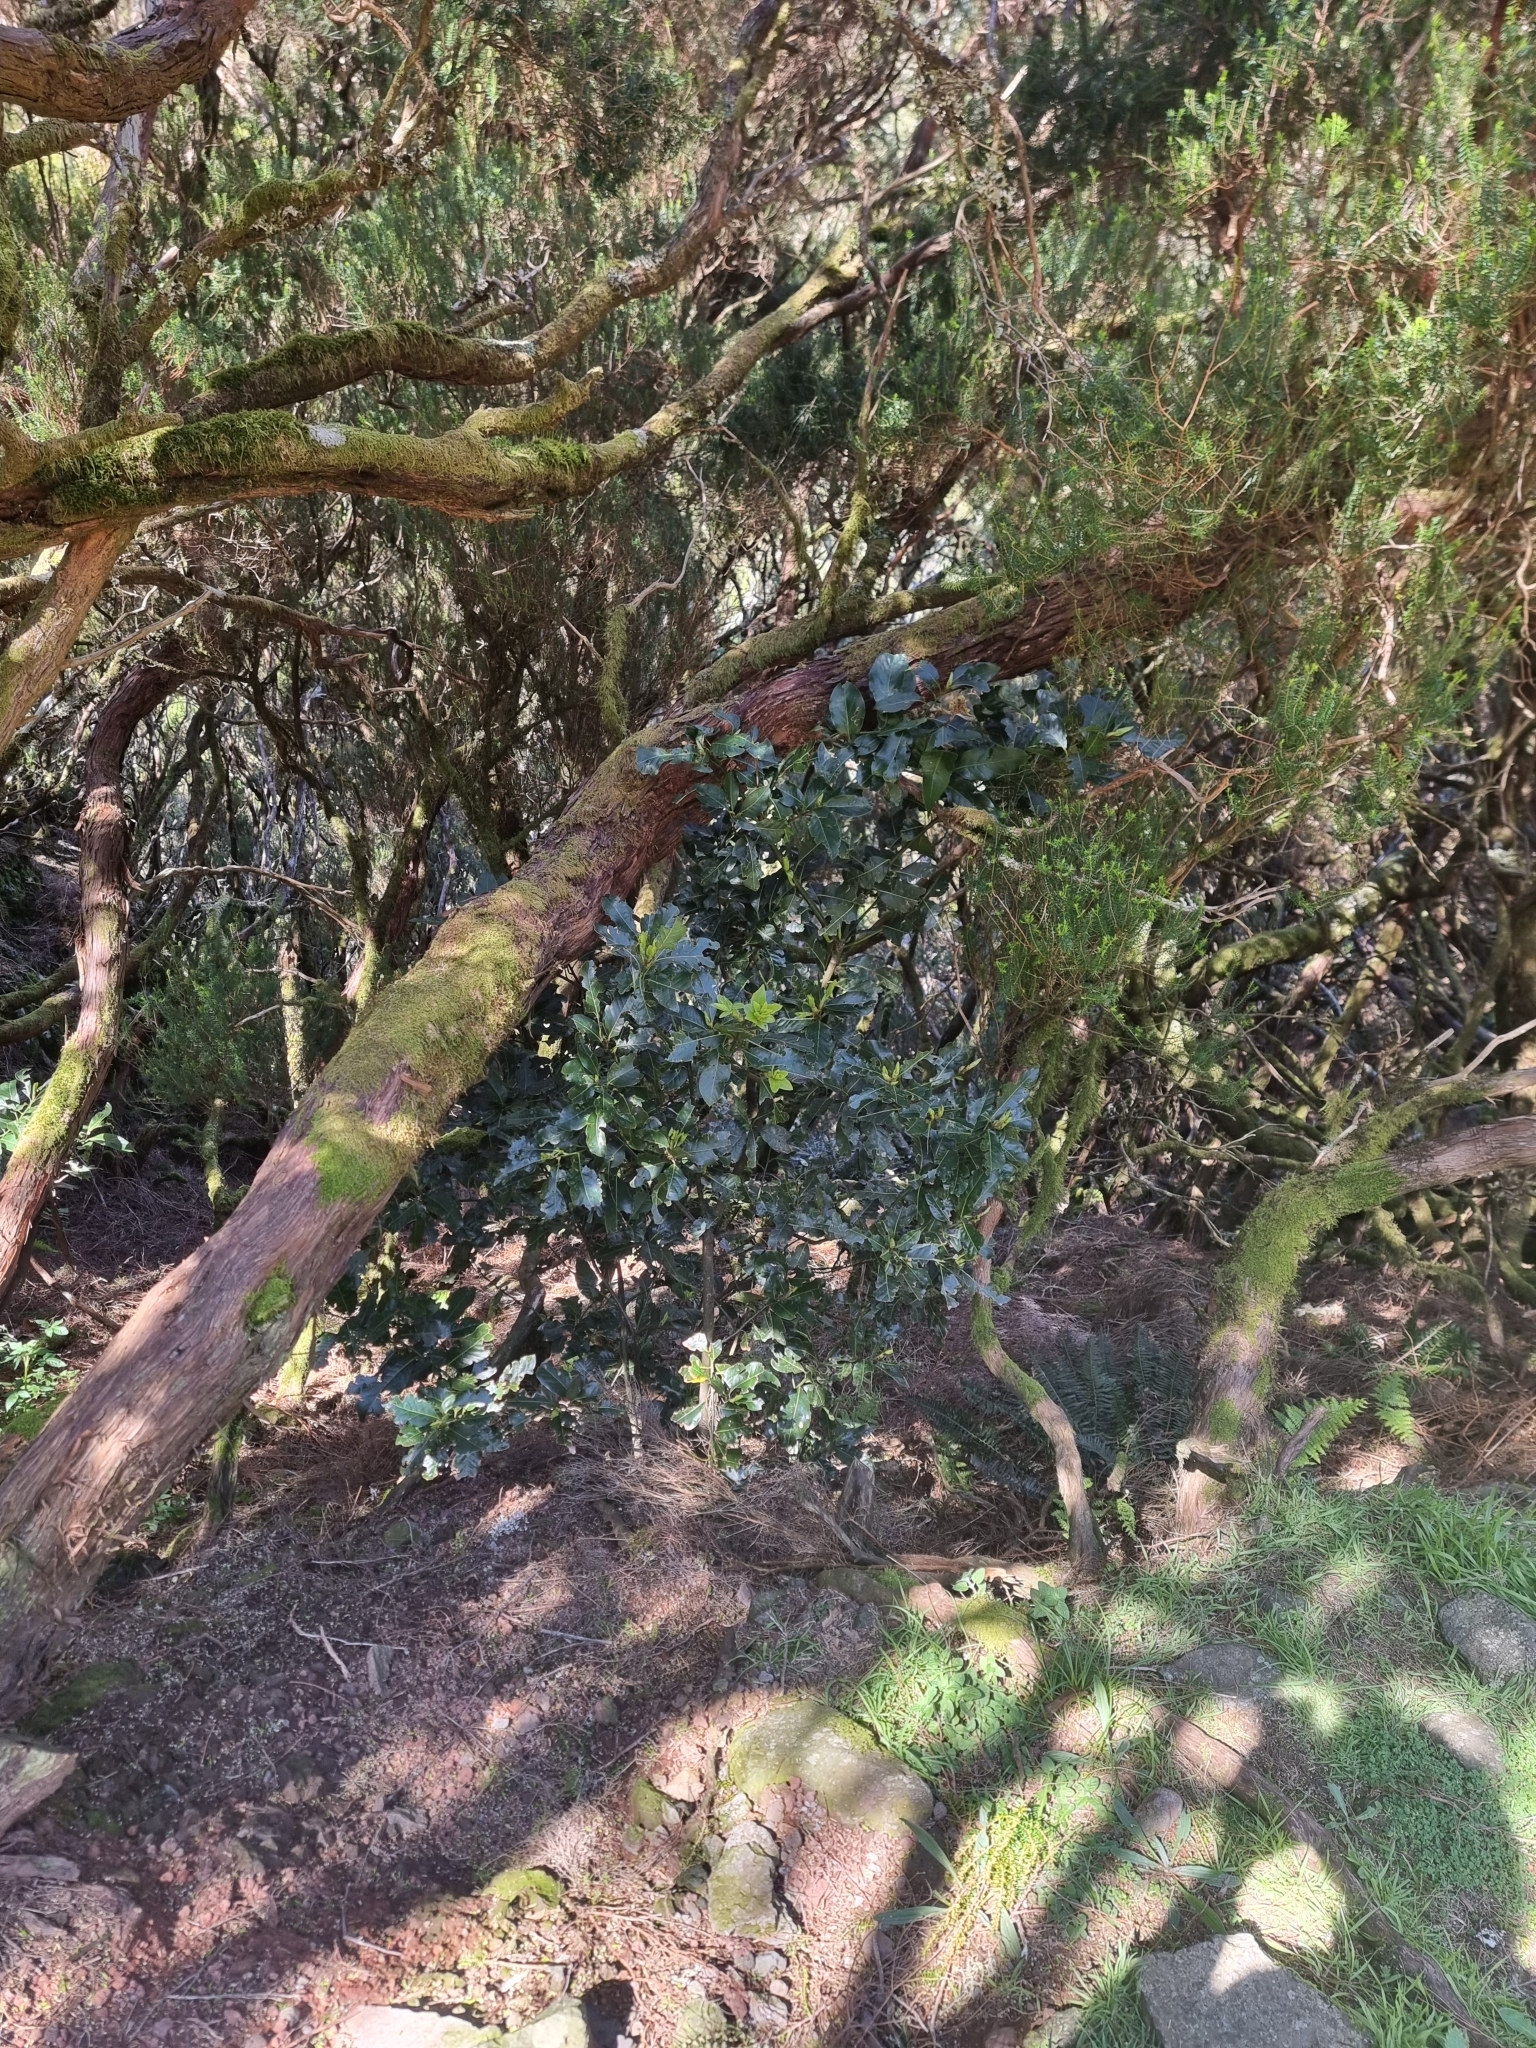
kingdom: Plantae
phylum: Tracheophyta
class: Magnoliopsida
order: Laurales
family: Lauraceae
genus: Laurus
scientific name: Laurus novocanariensis
